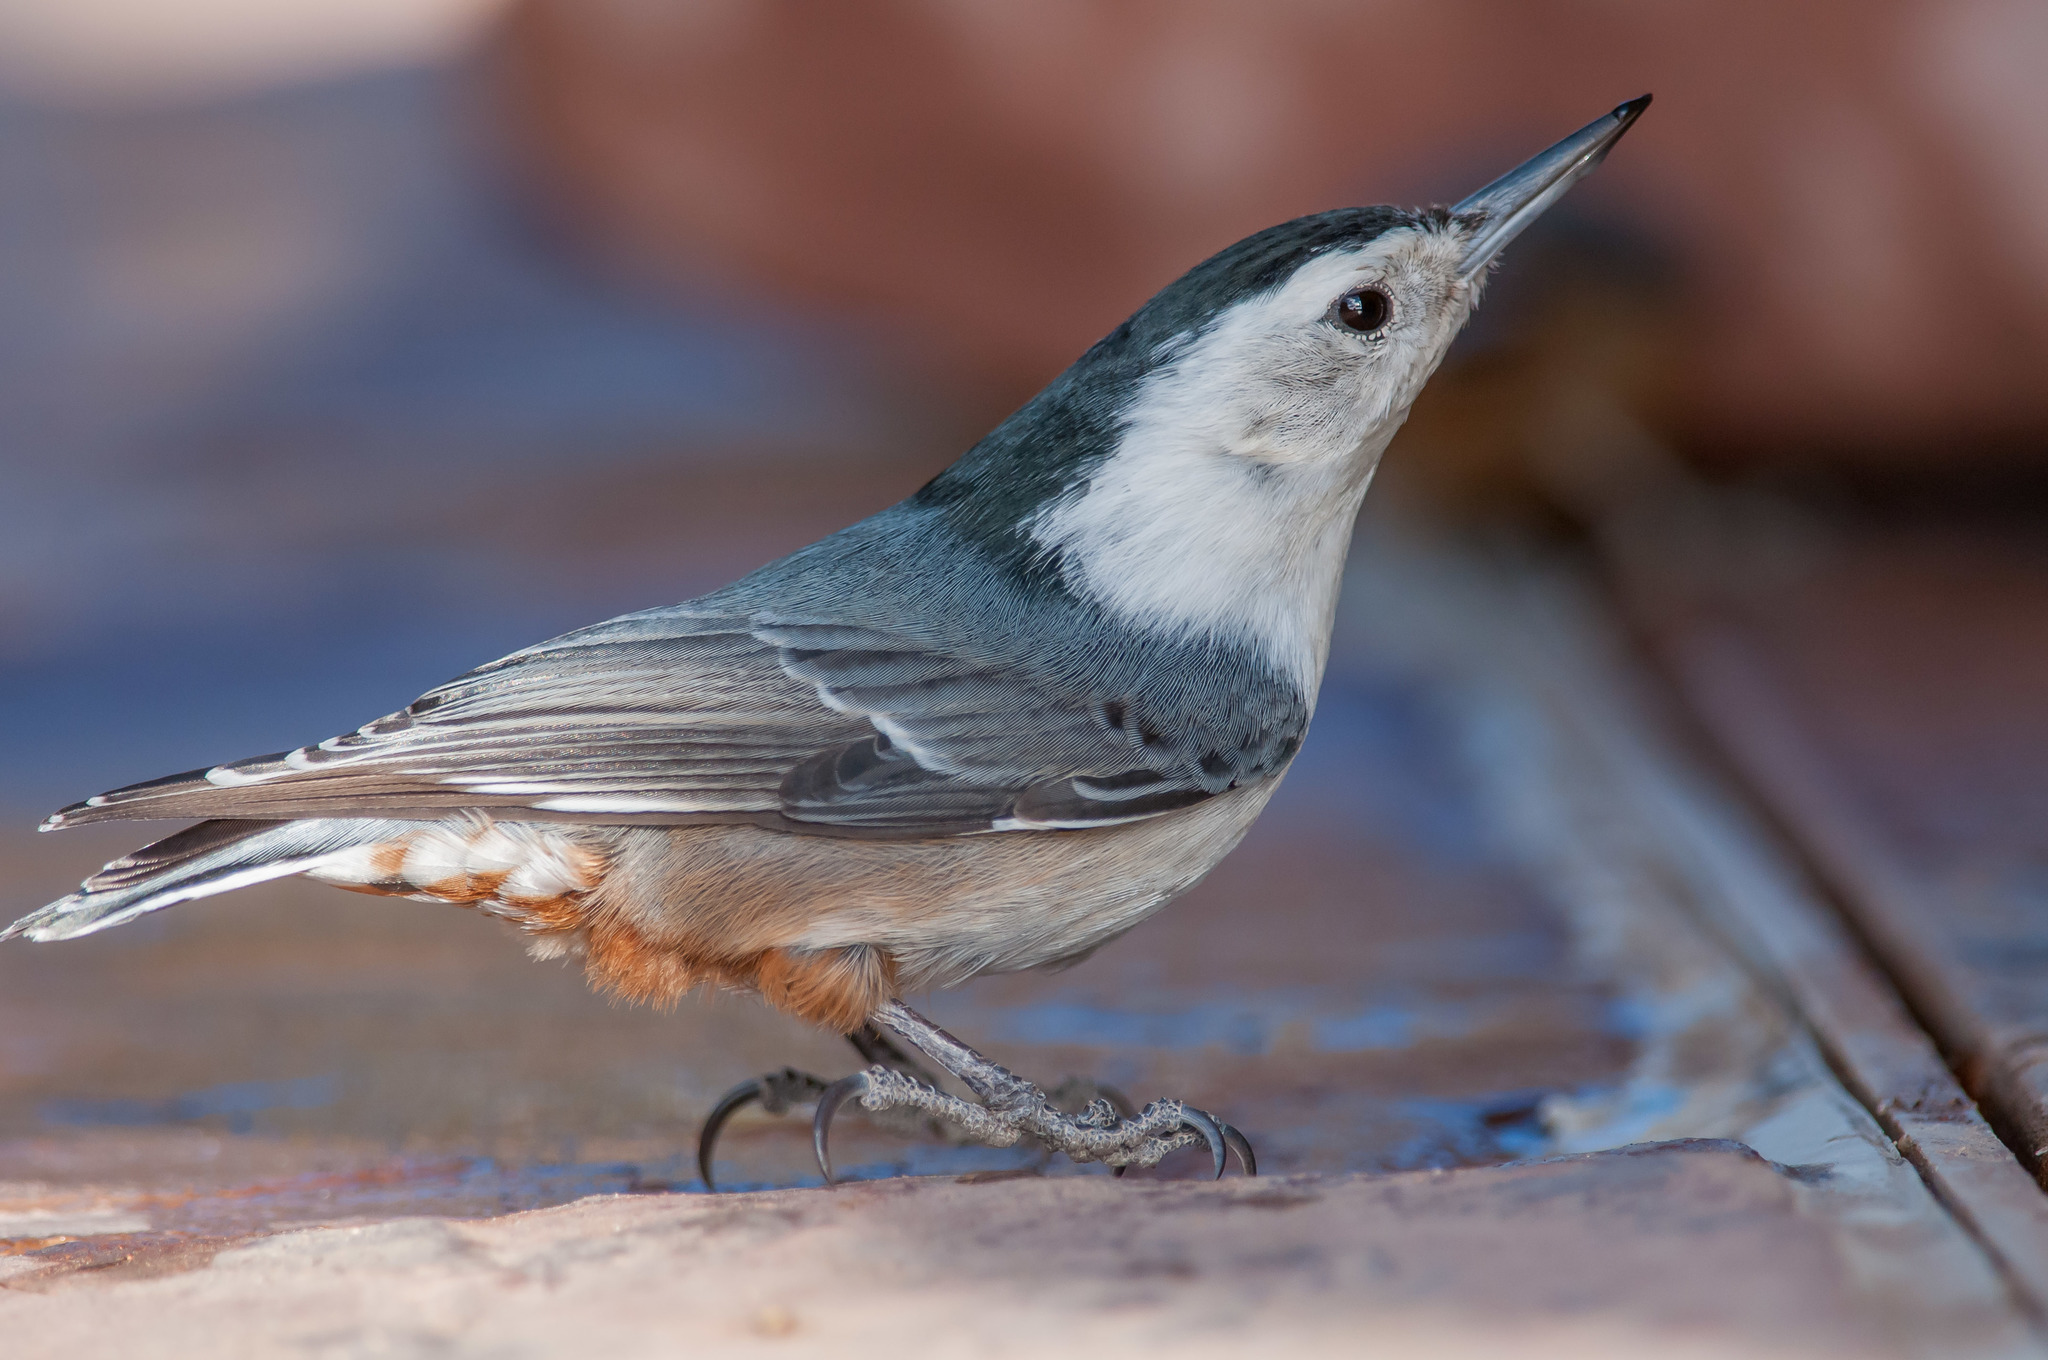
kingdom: Animalia
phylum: Chordata
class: Aves
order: Passeriformes
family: Sittidae
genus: Sitta
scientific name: Sitta carolinensis
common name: White-breasted nuthatch
